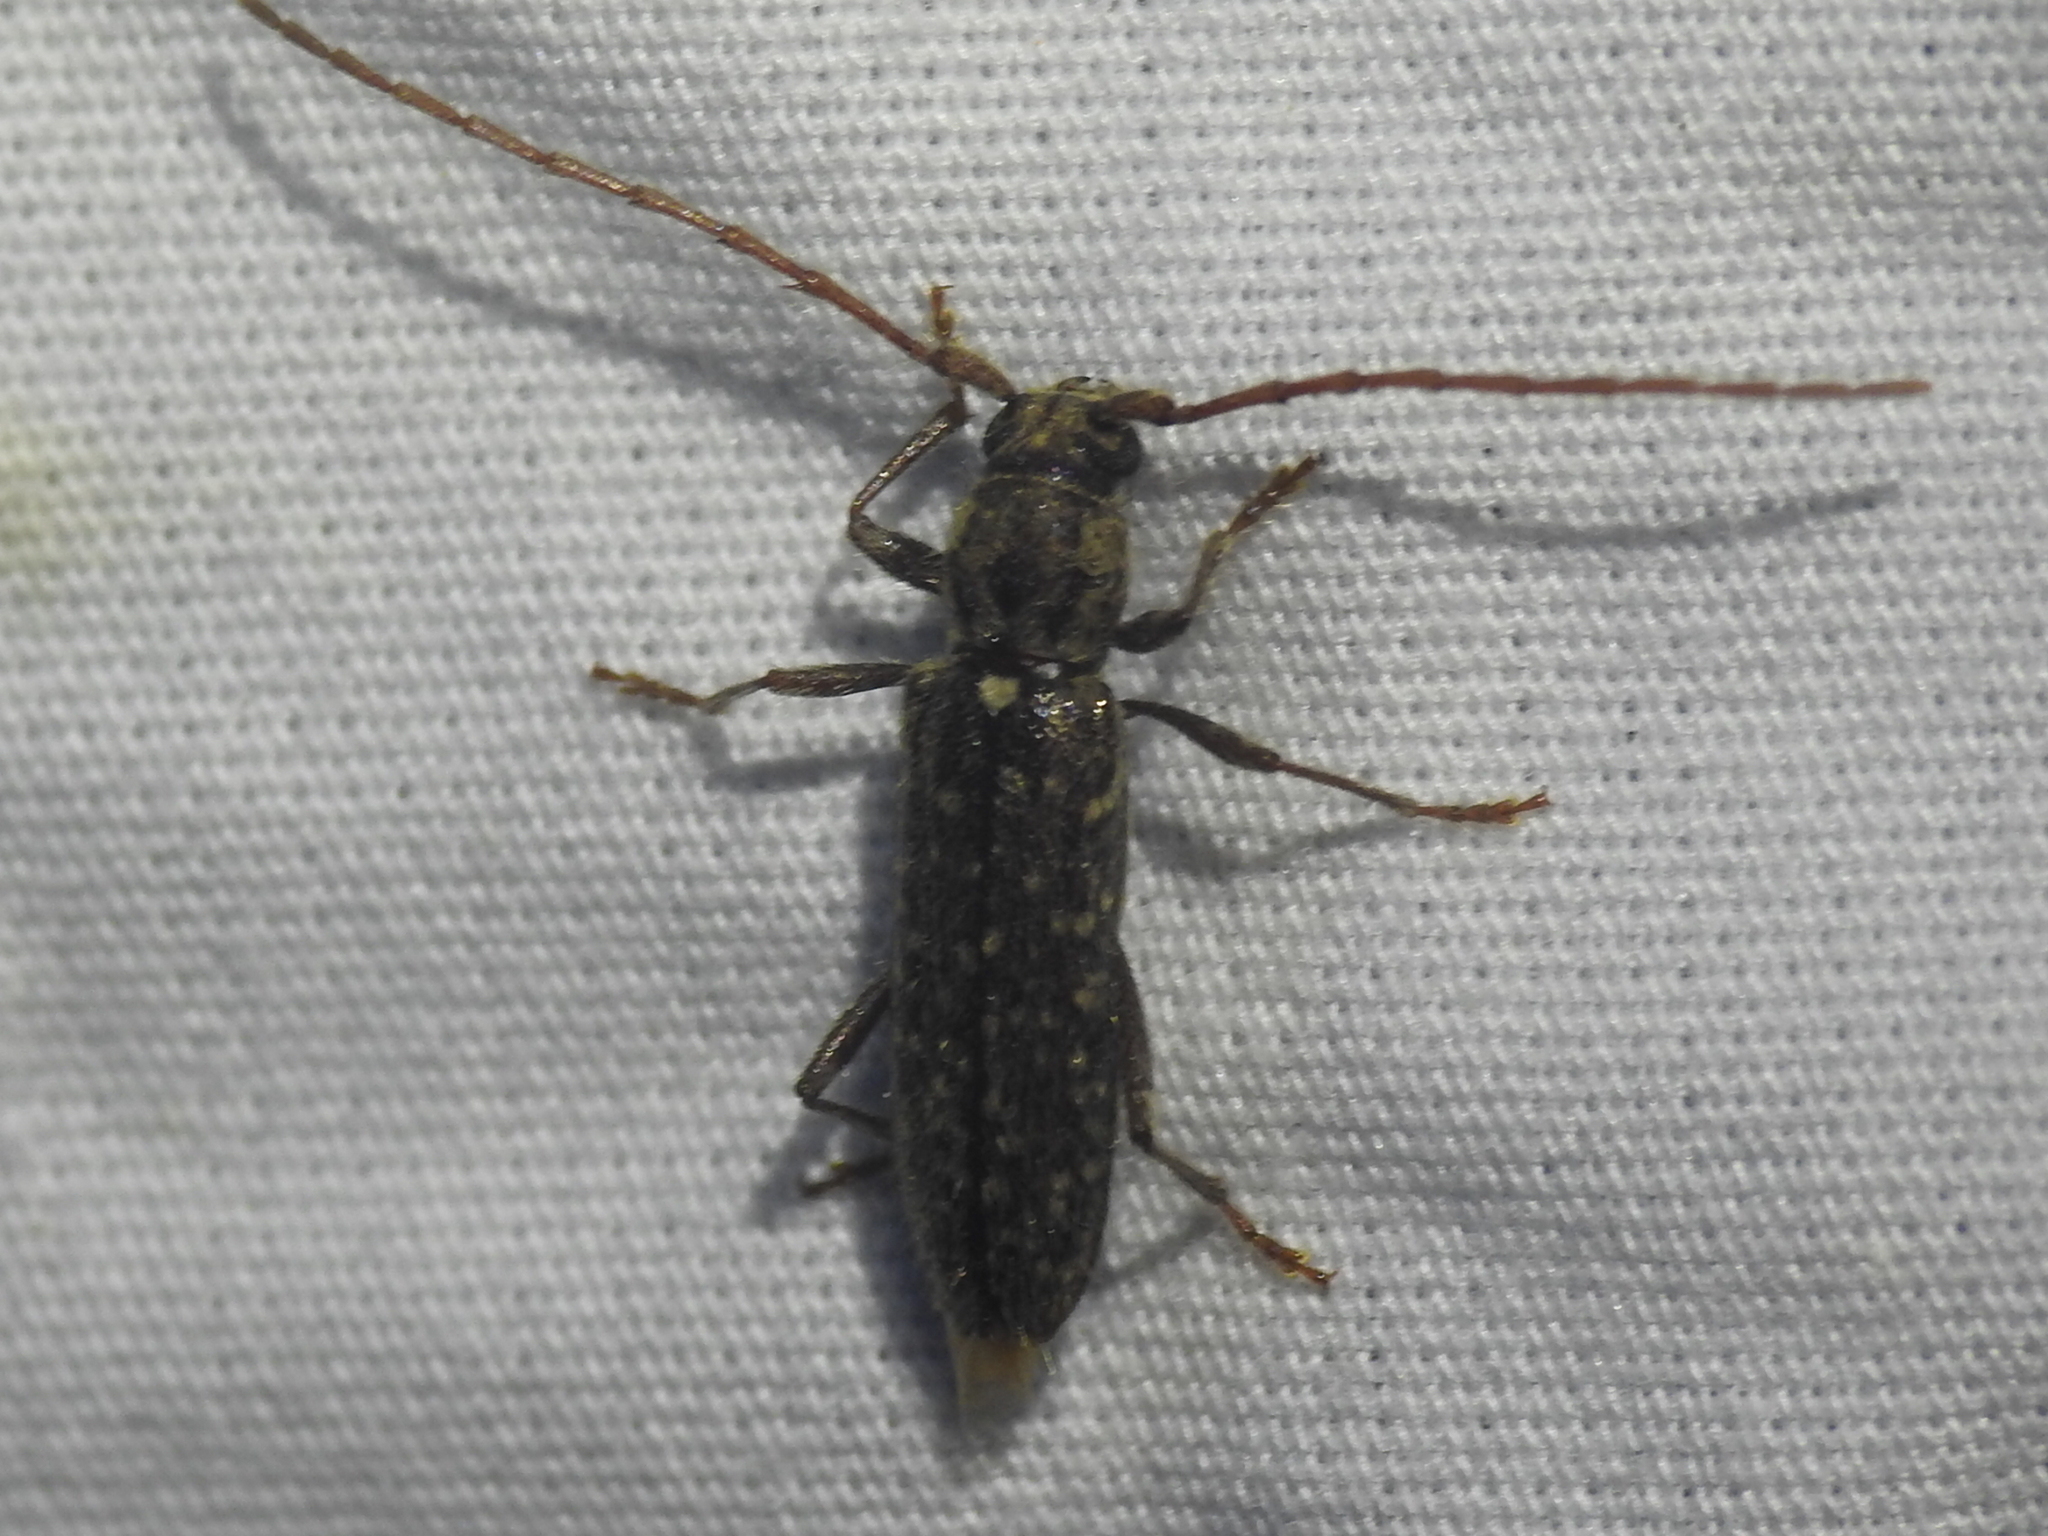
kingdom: Animalia
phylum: Arthropoda
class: Insecta
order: Coleoptera
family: Cerambycidae
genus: Anelaphus
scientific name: Anelaphus pumilus
